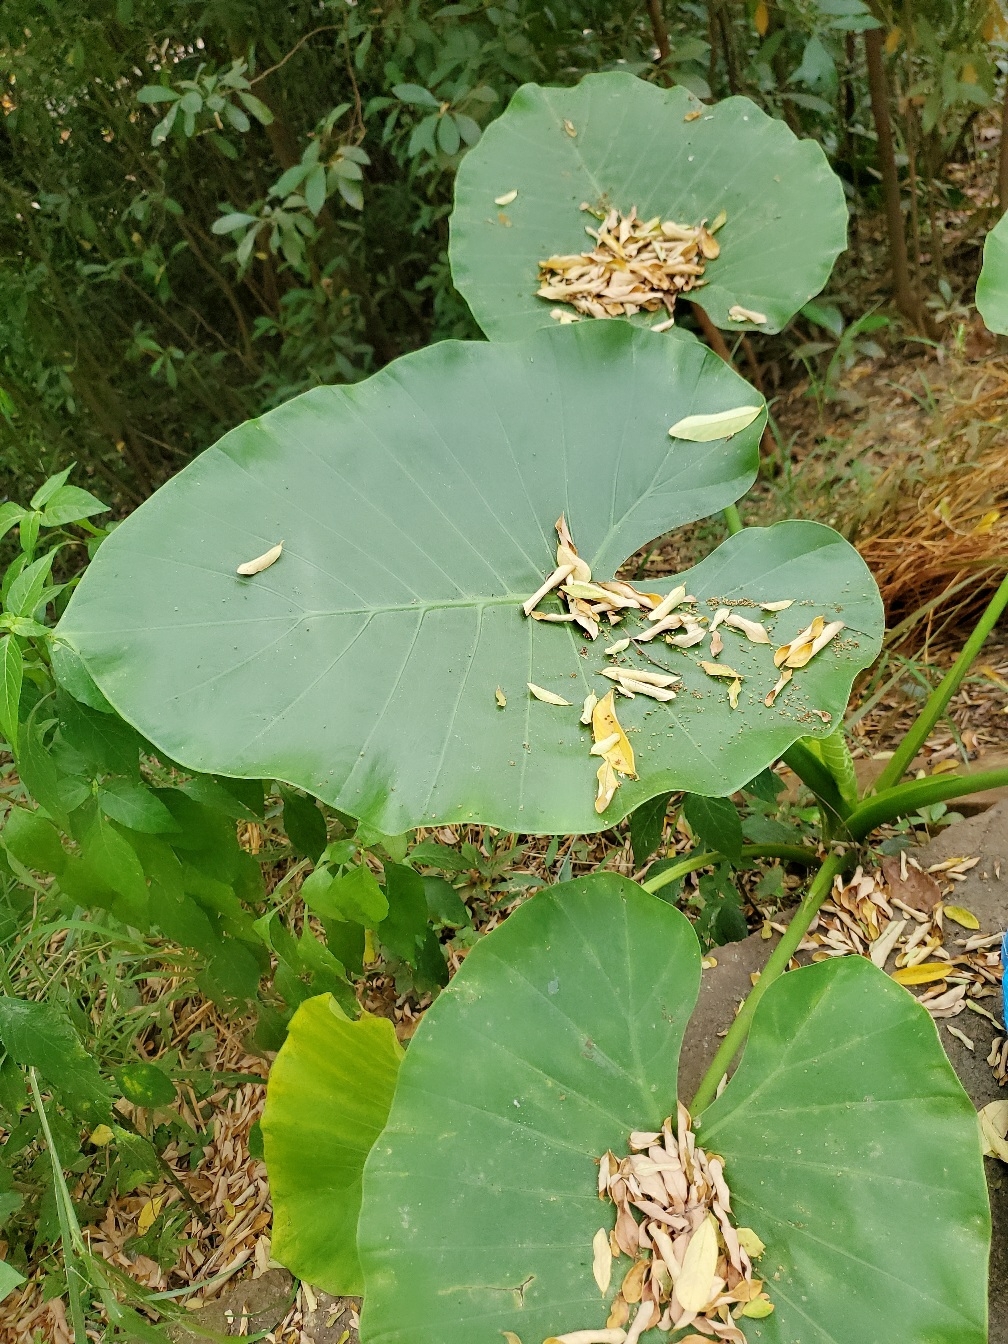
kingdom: Plantae
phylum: Tracheophyta
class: Liliopsida
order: Alismatales
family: Araceae
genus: Alocasia
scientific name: Alocasia odora
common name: Asian taro
